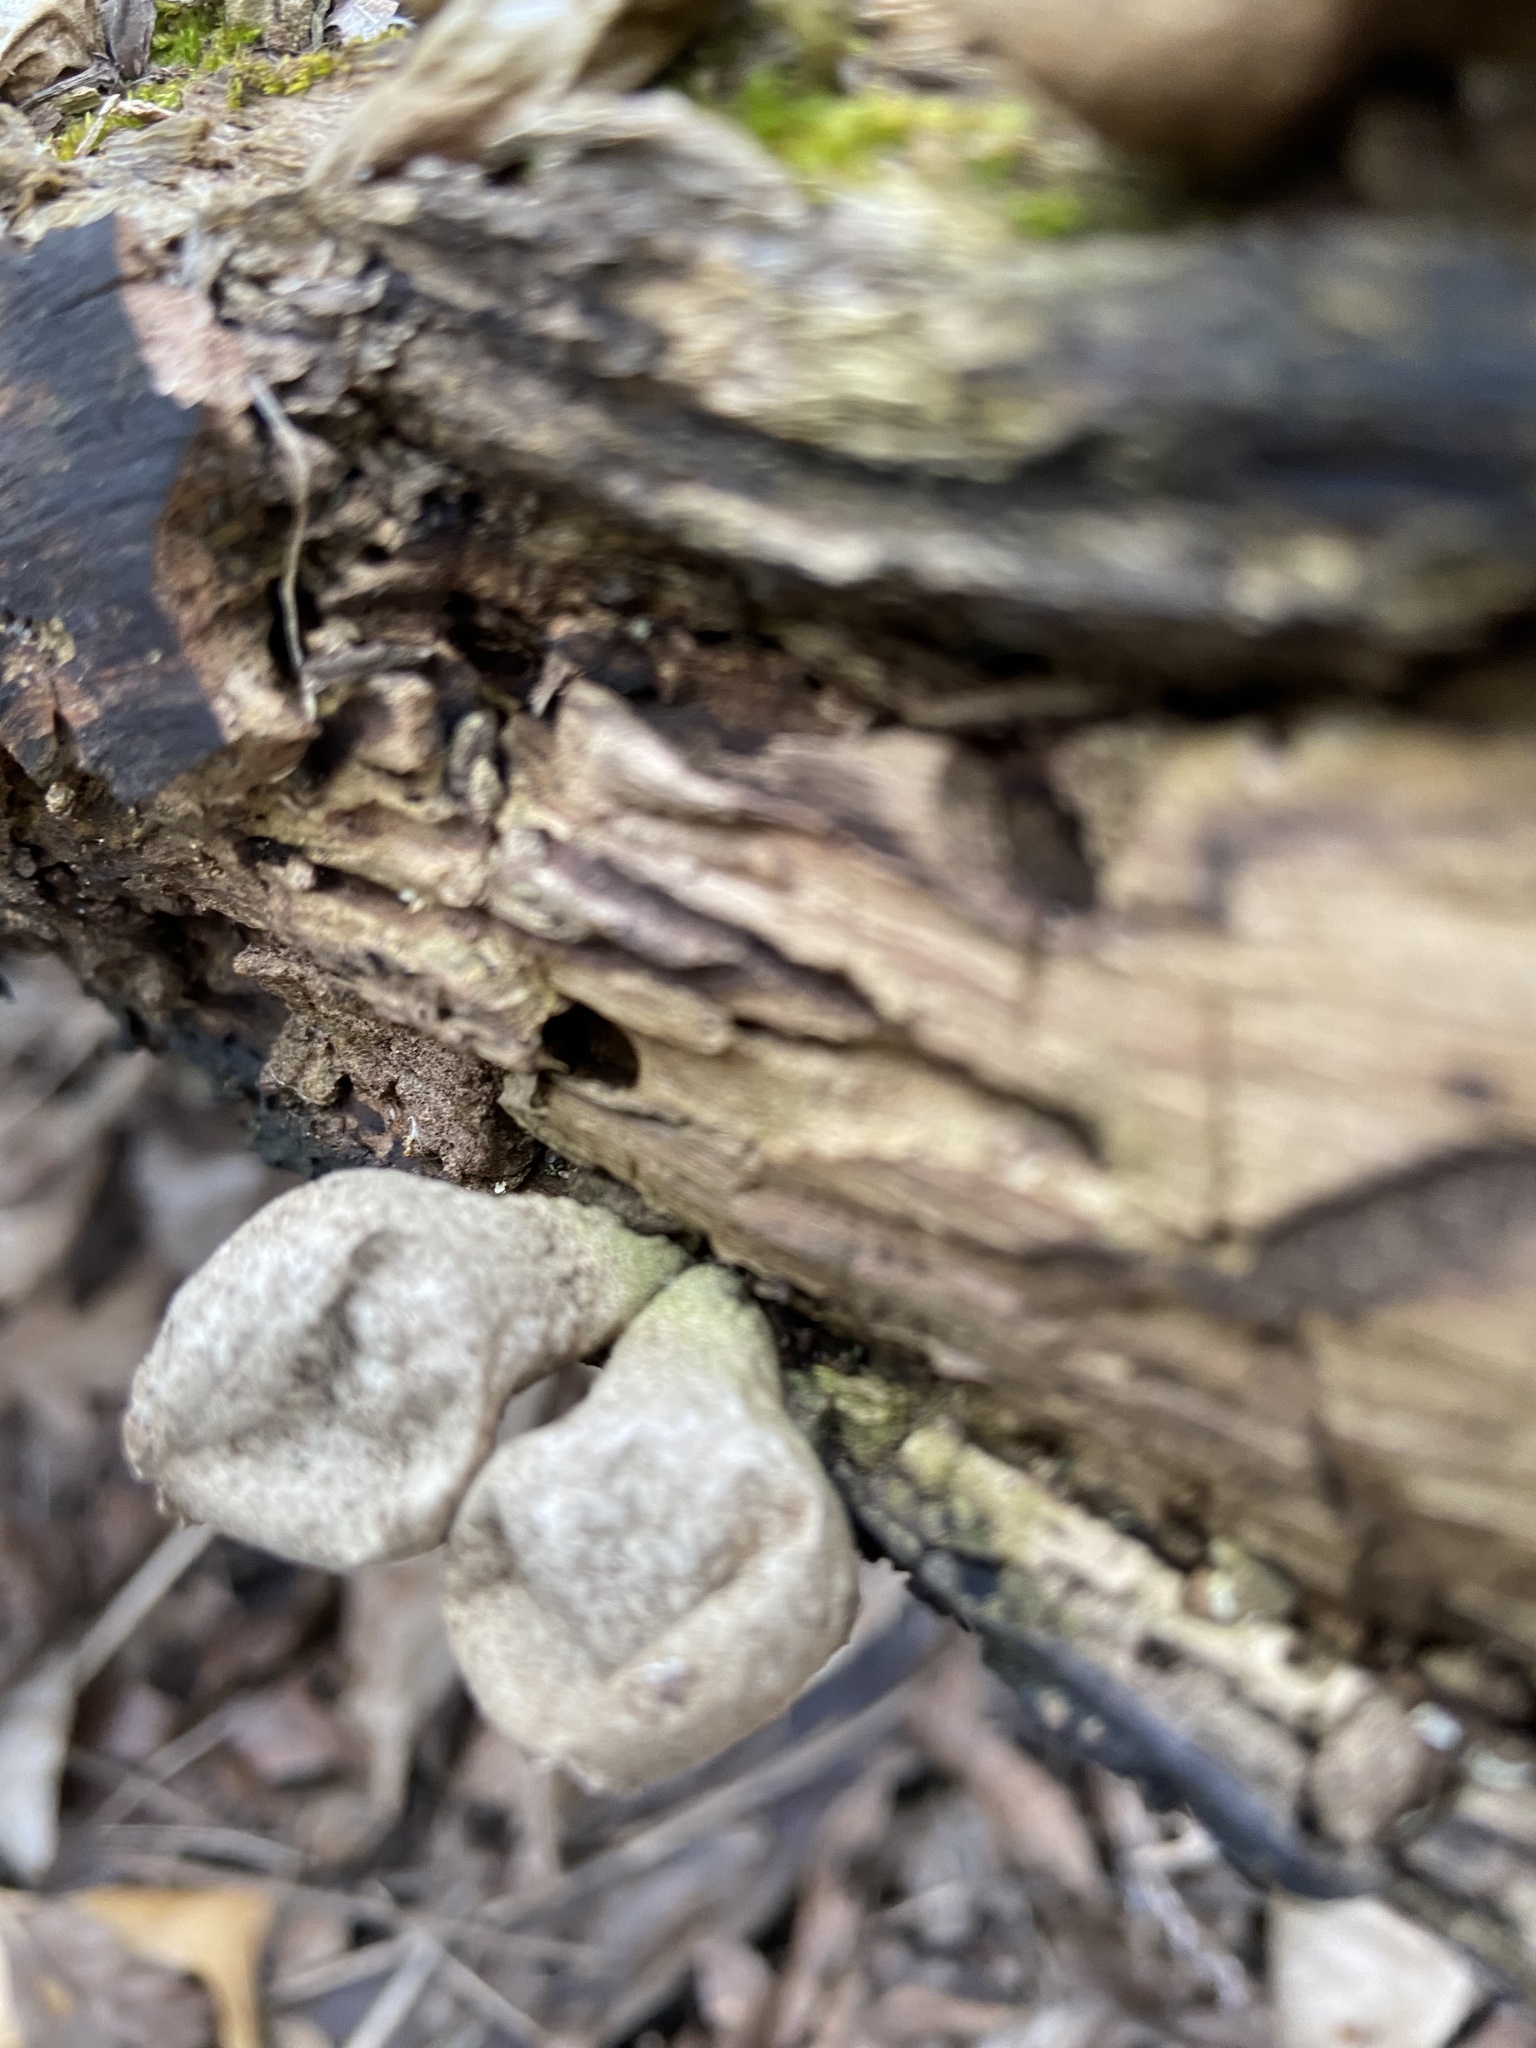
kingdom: Fungi
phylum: Basidiomycota
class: Agaricomycetes
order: Agaricales
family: Lycoperdaceae
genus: Apioperdon
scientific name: Apioperdon pyriforme
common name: Pear-shaped puffball
